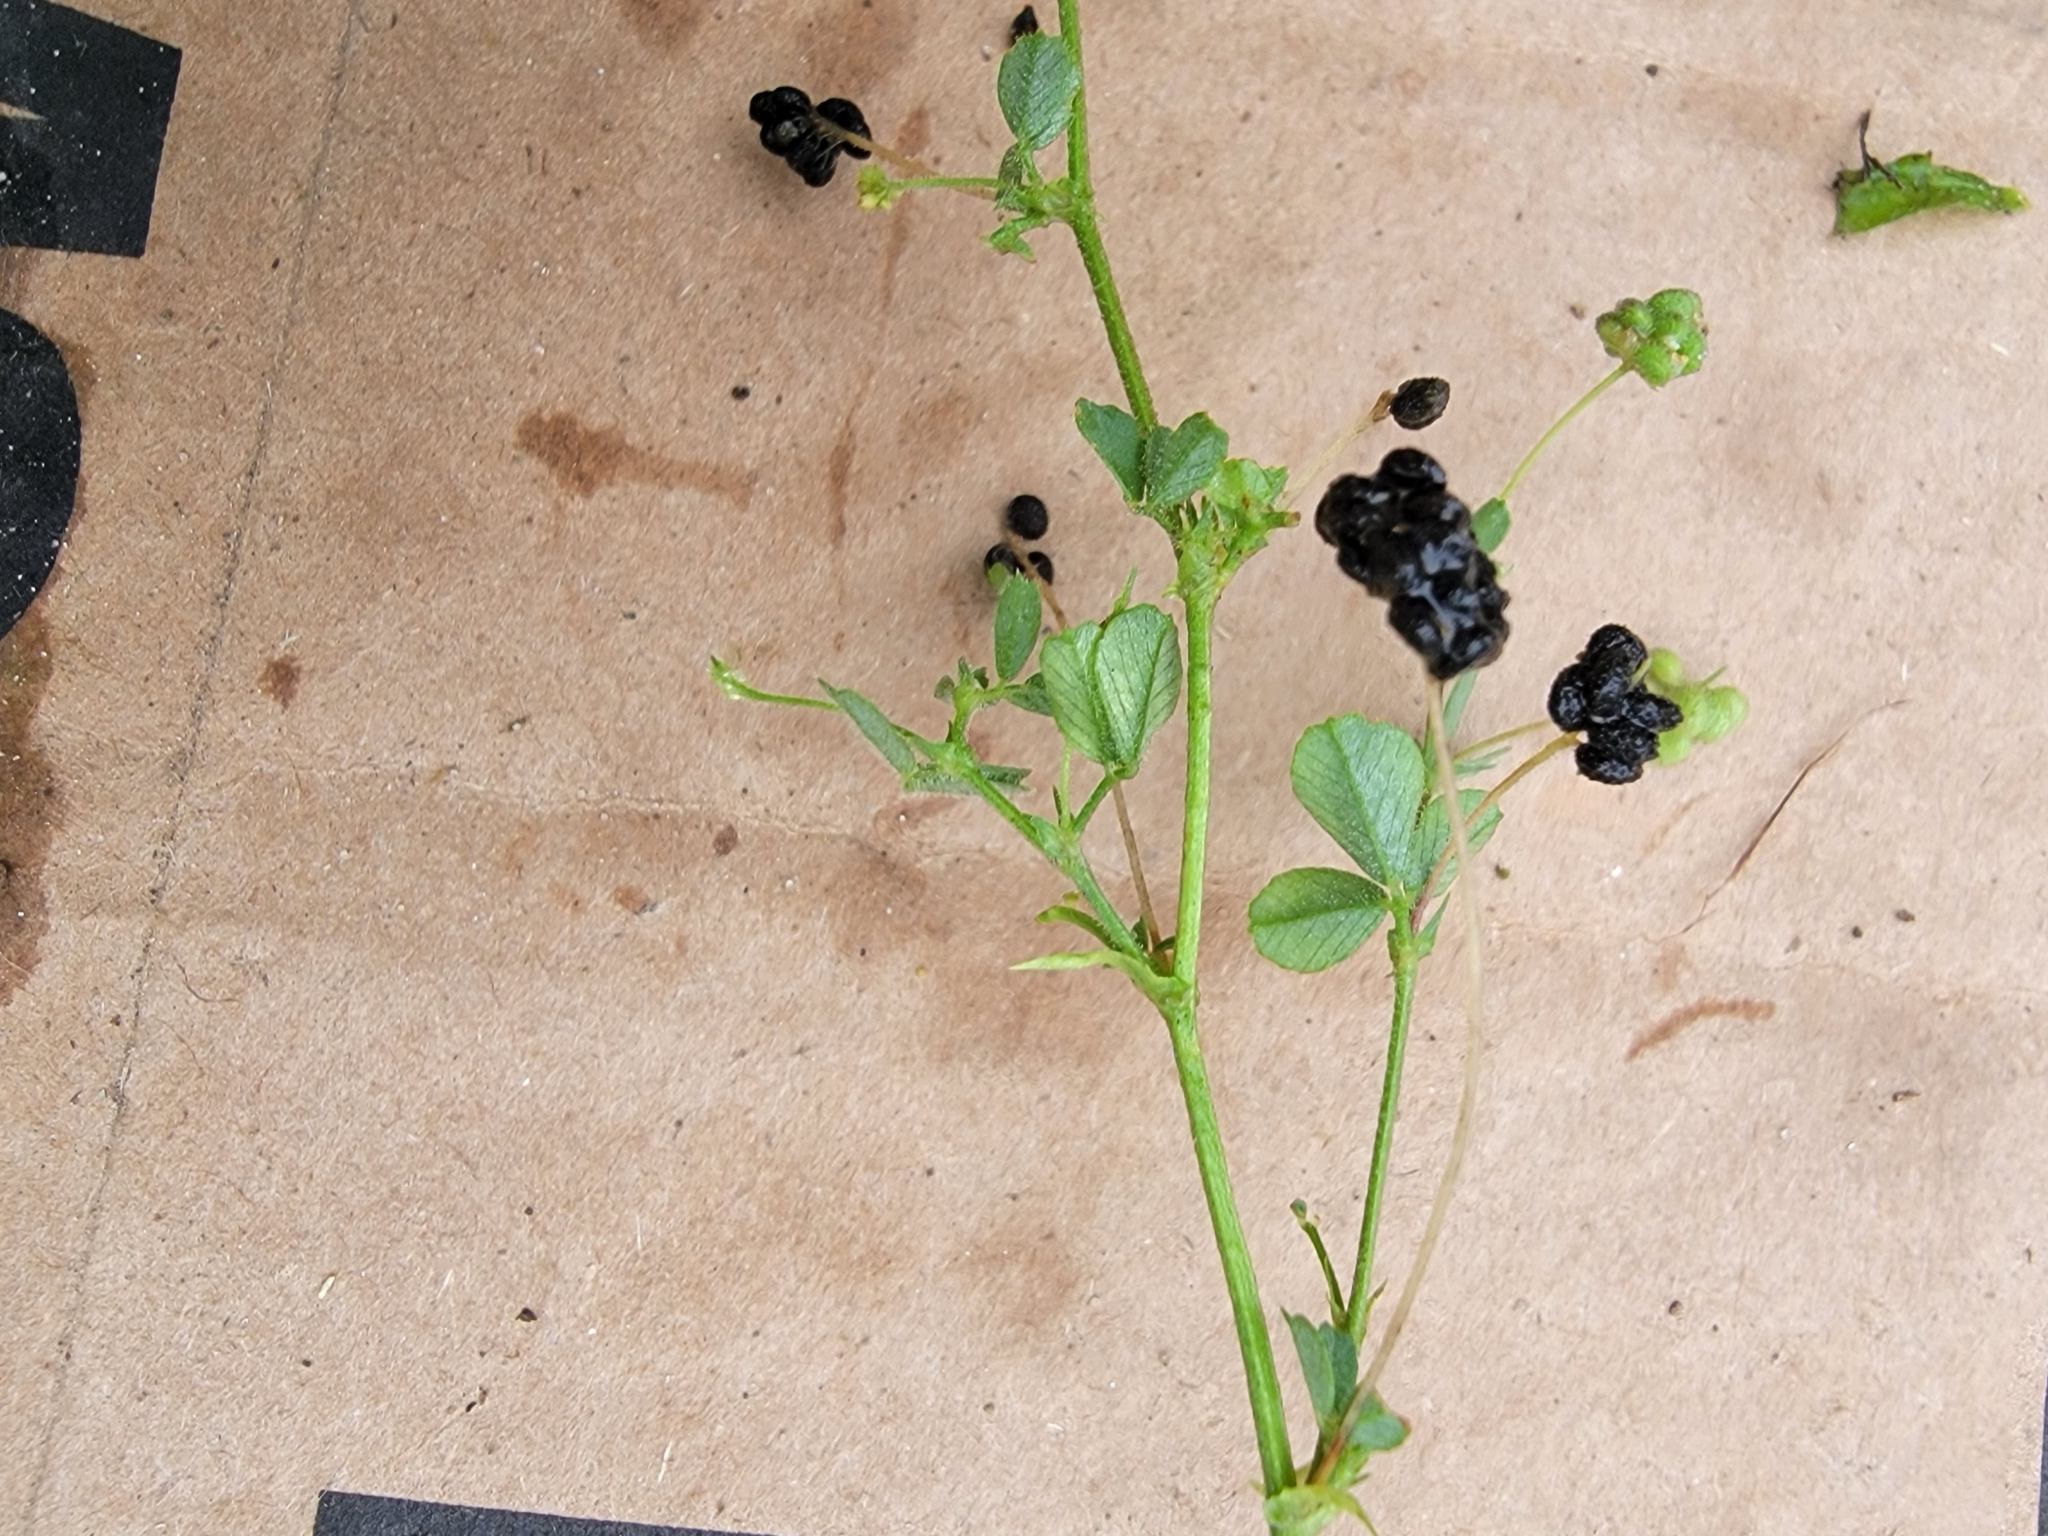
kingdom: Plantae
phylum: Tracheophyta
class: Magnoliopsida
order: Fabales
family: Fabaceae
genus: Medicago
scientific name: Medicago lupulina
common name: Black medick
